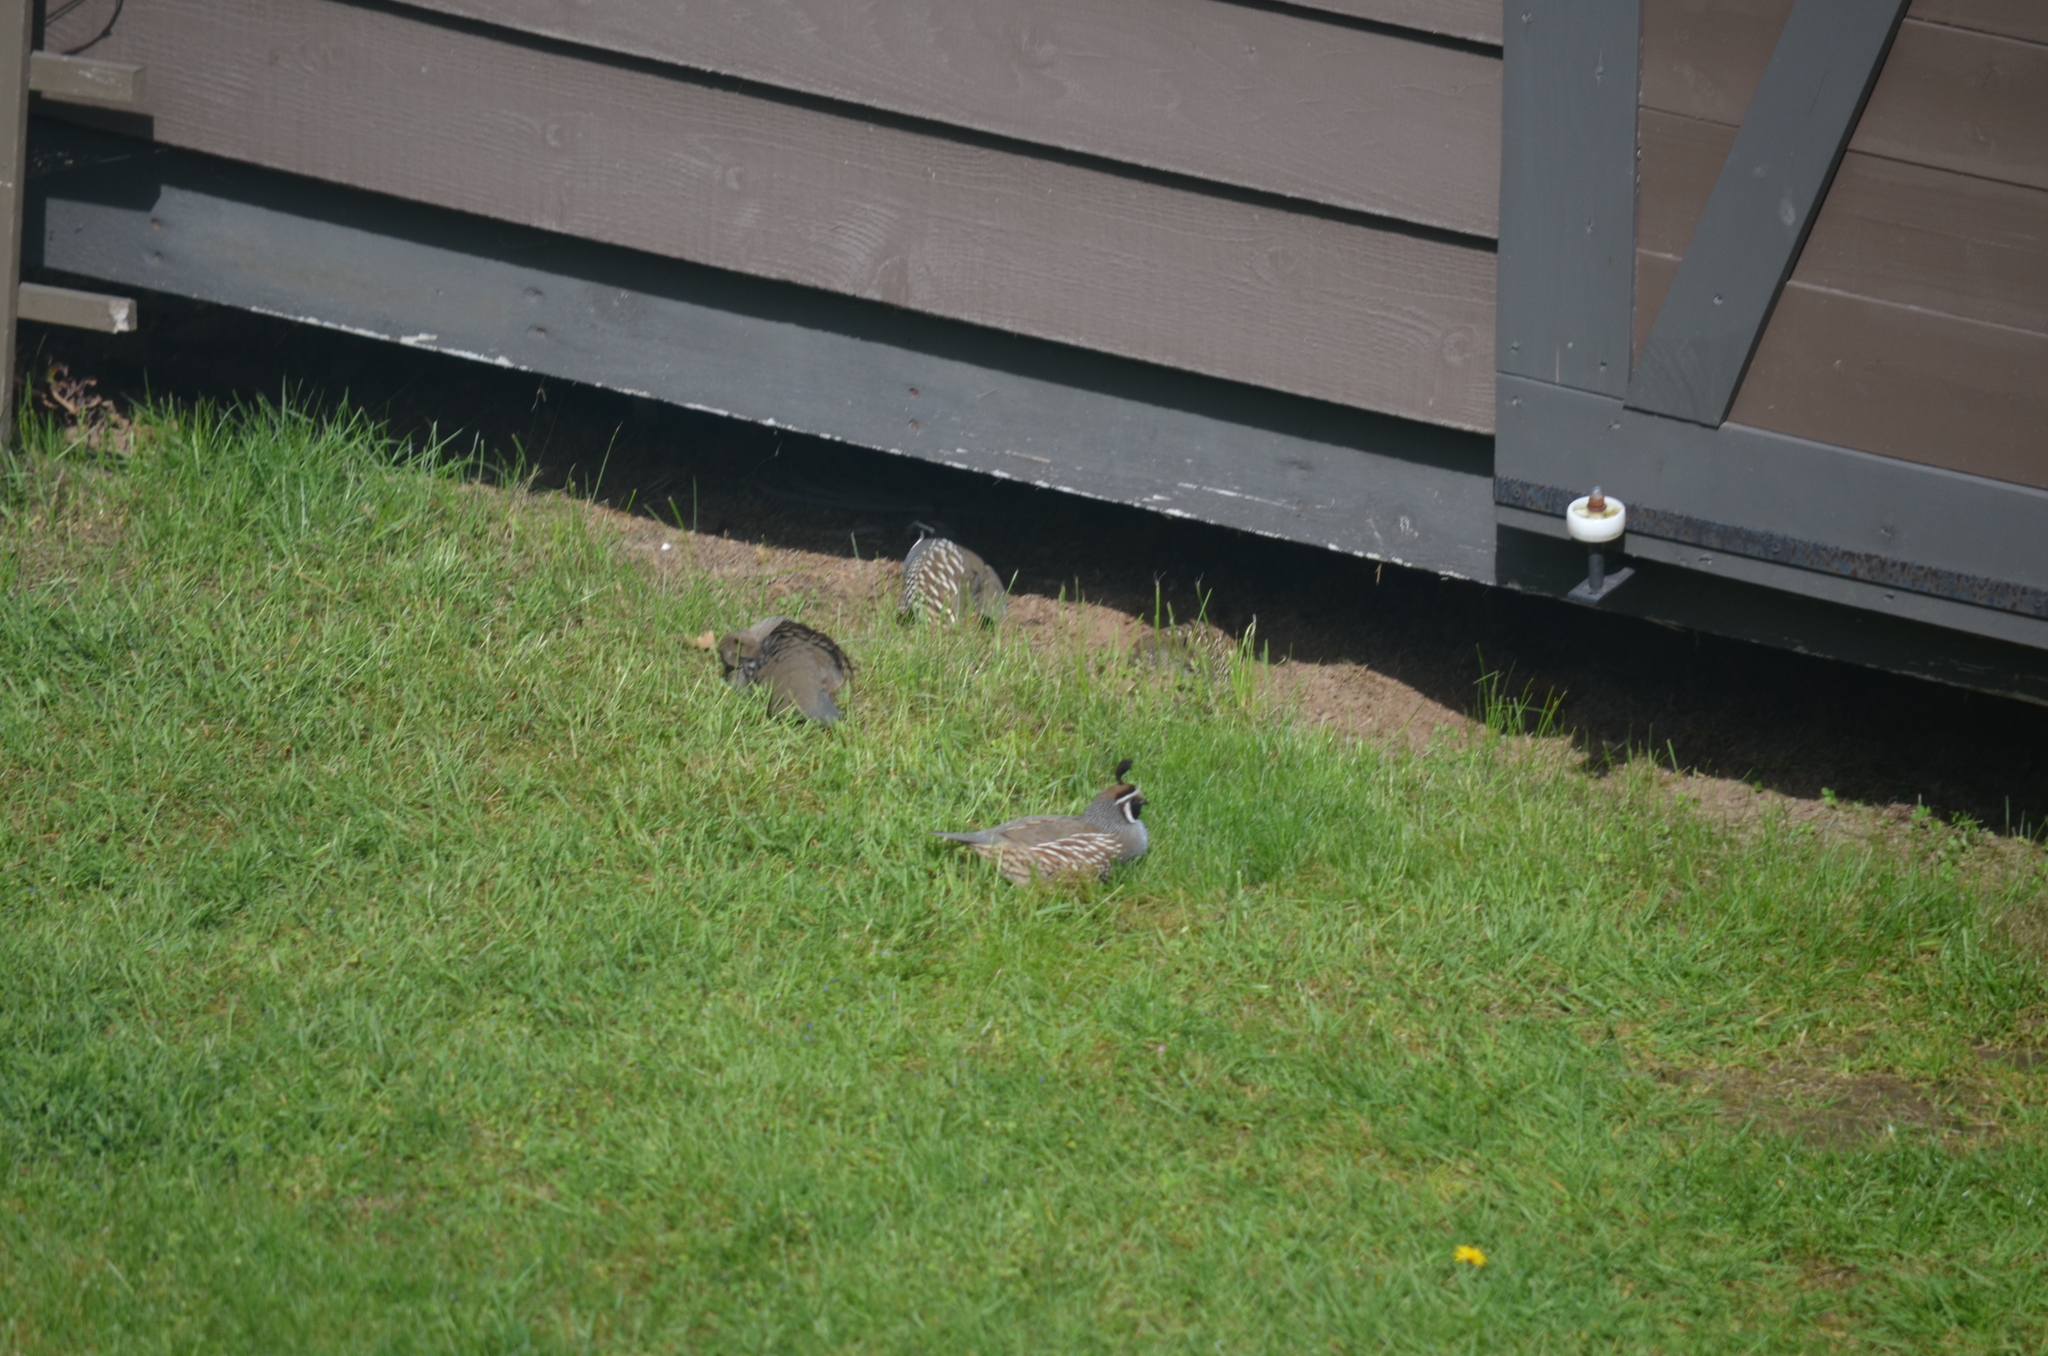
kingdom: Animalia
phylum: Chordata
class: Aves
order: Galliformes
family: Odontophoridae
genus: Callipepla
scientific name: Callipepla californica
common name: California quail
